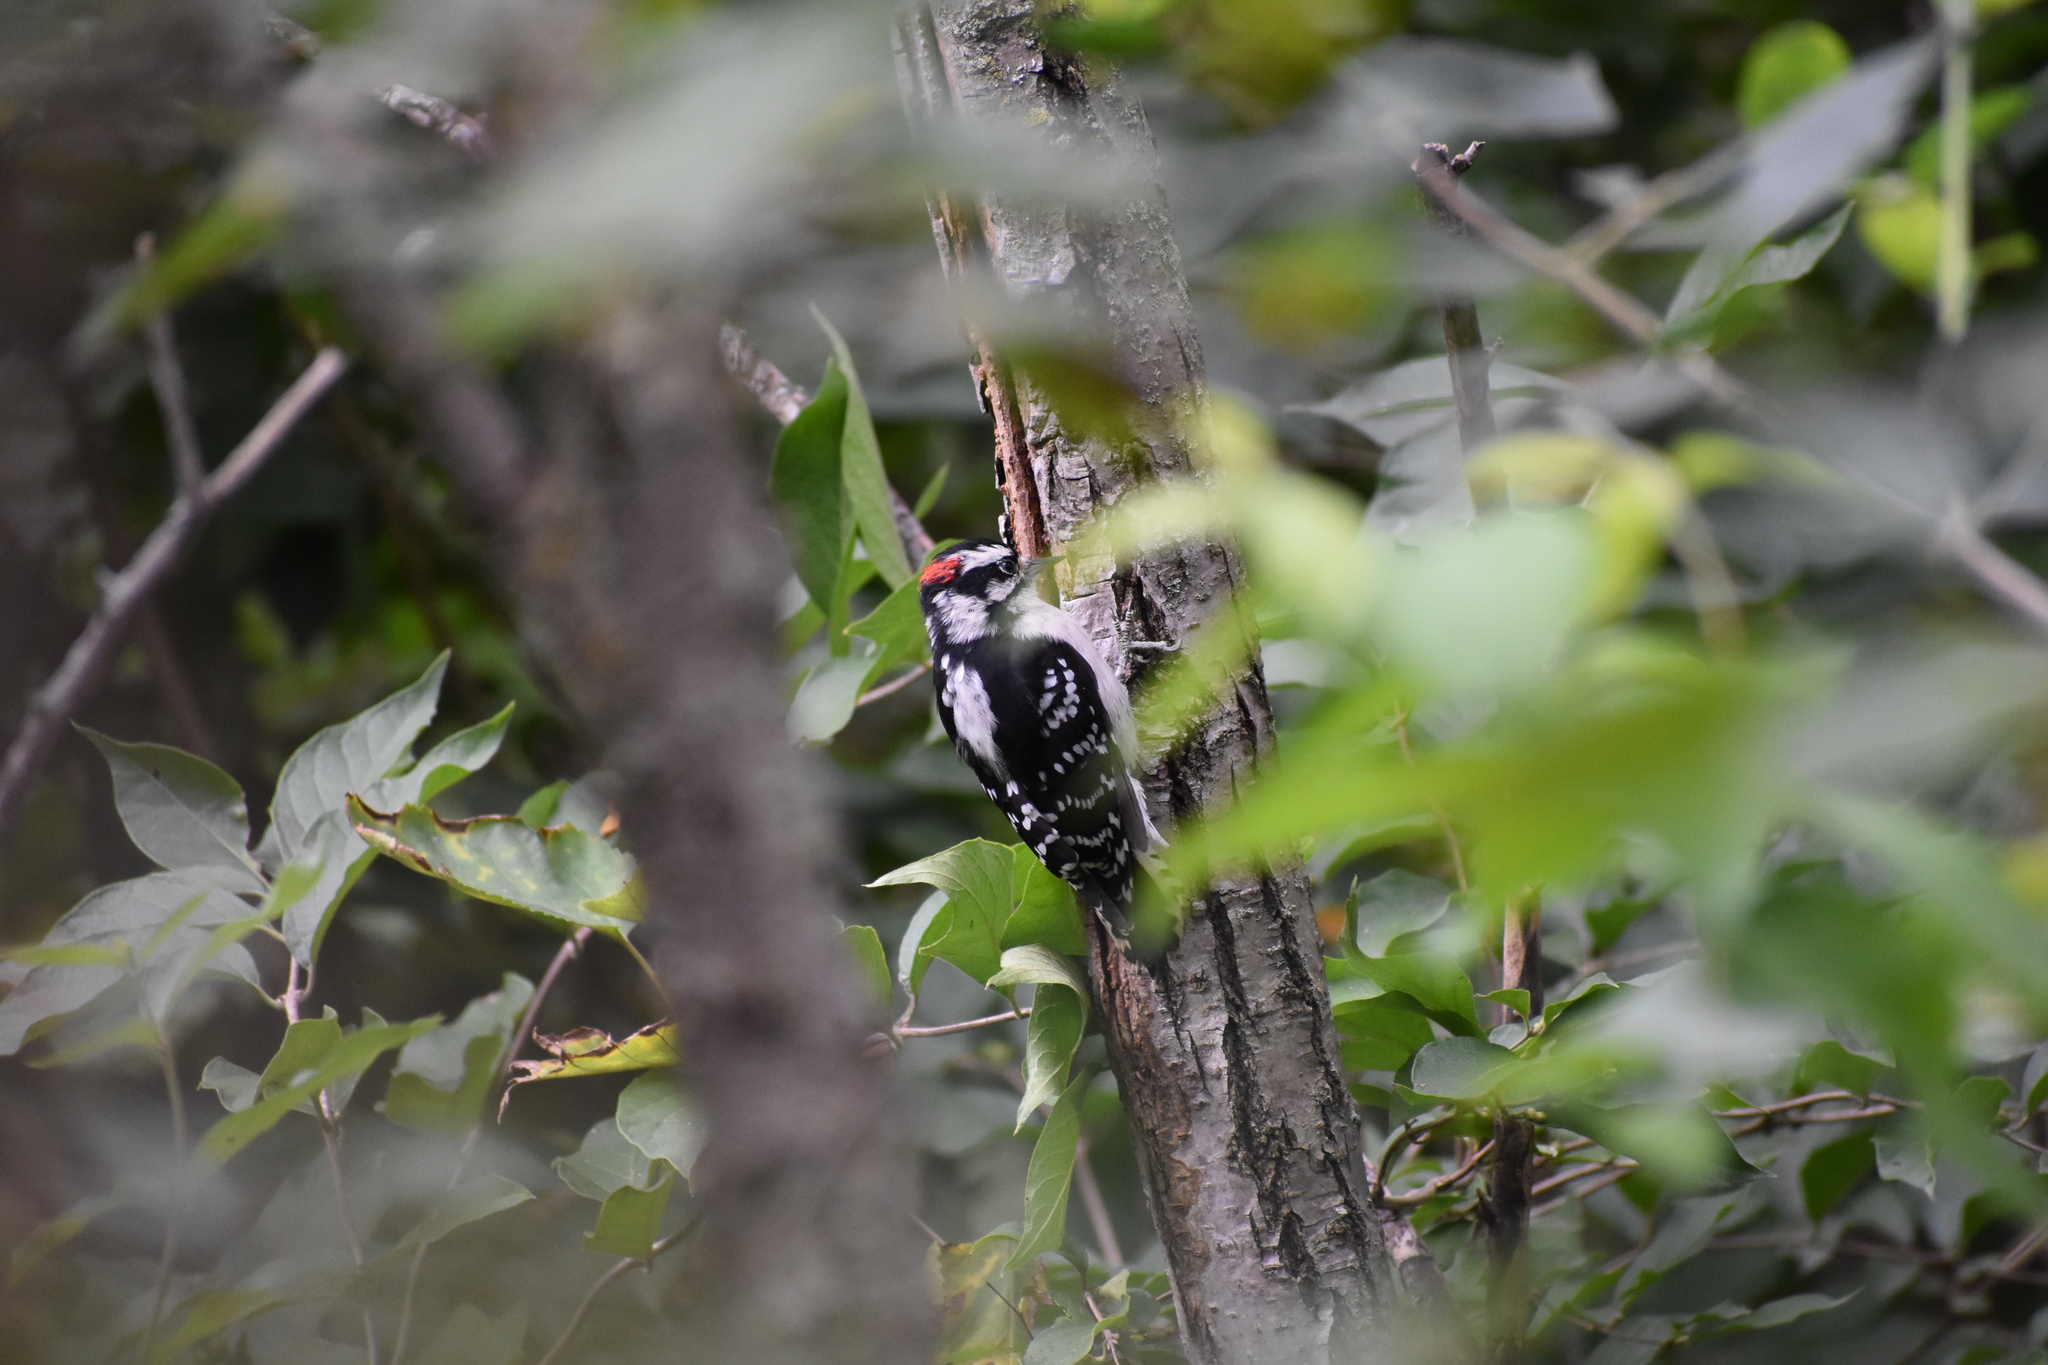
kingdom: Animalia
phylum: Chordata
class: Aves
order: Piciformes
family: Picidae
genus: Dryobates
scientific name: Dryobates pubescens
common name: Downy woodpecker
